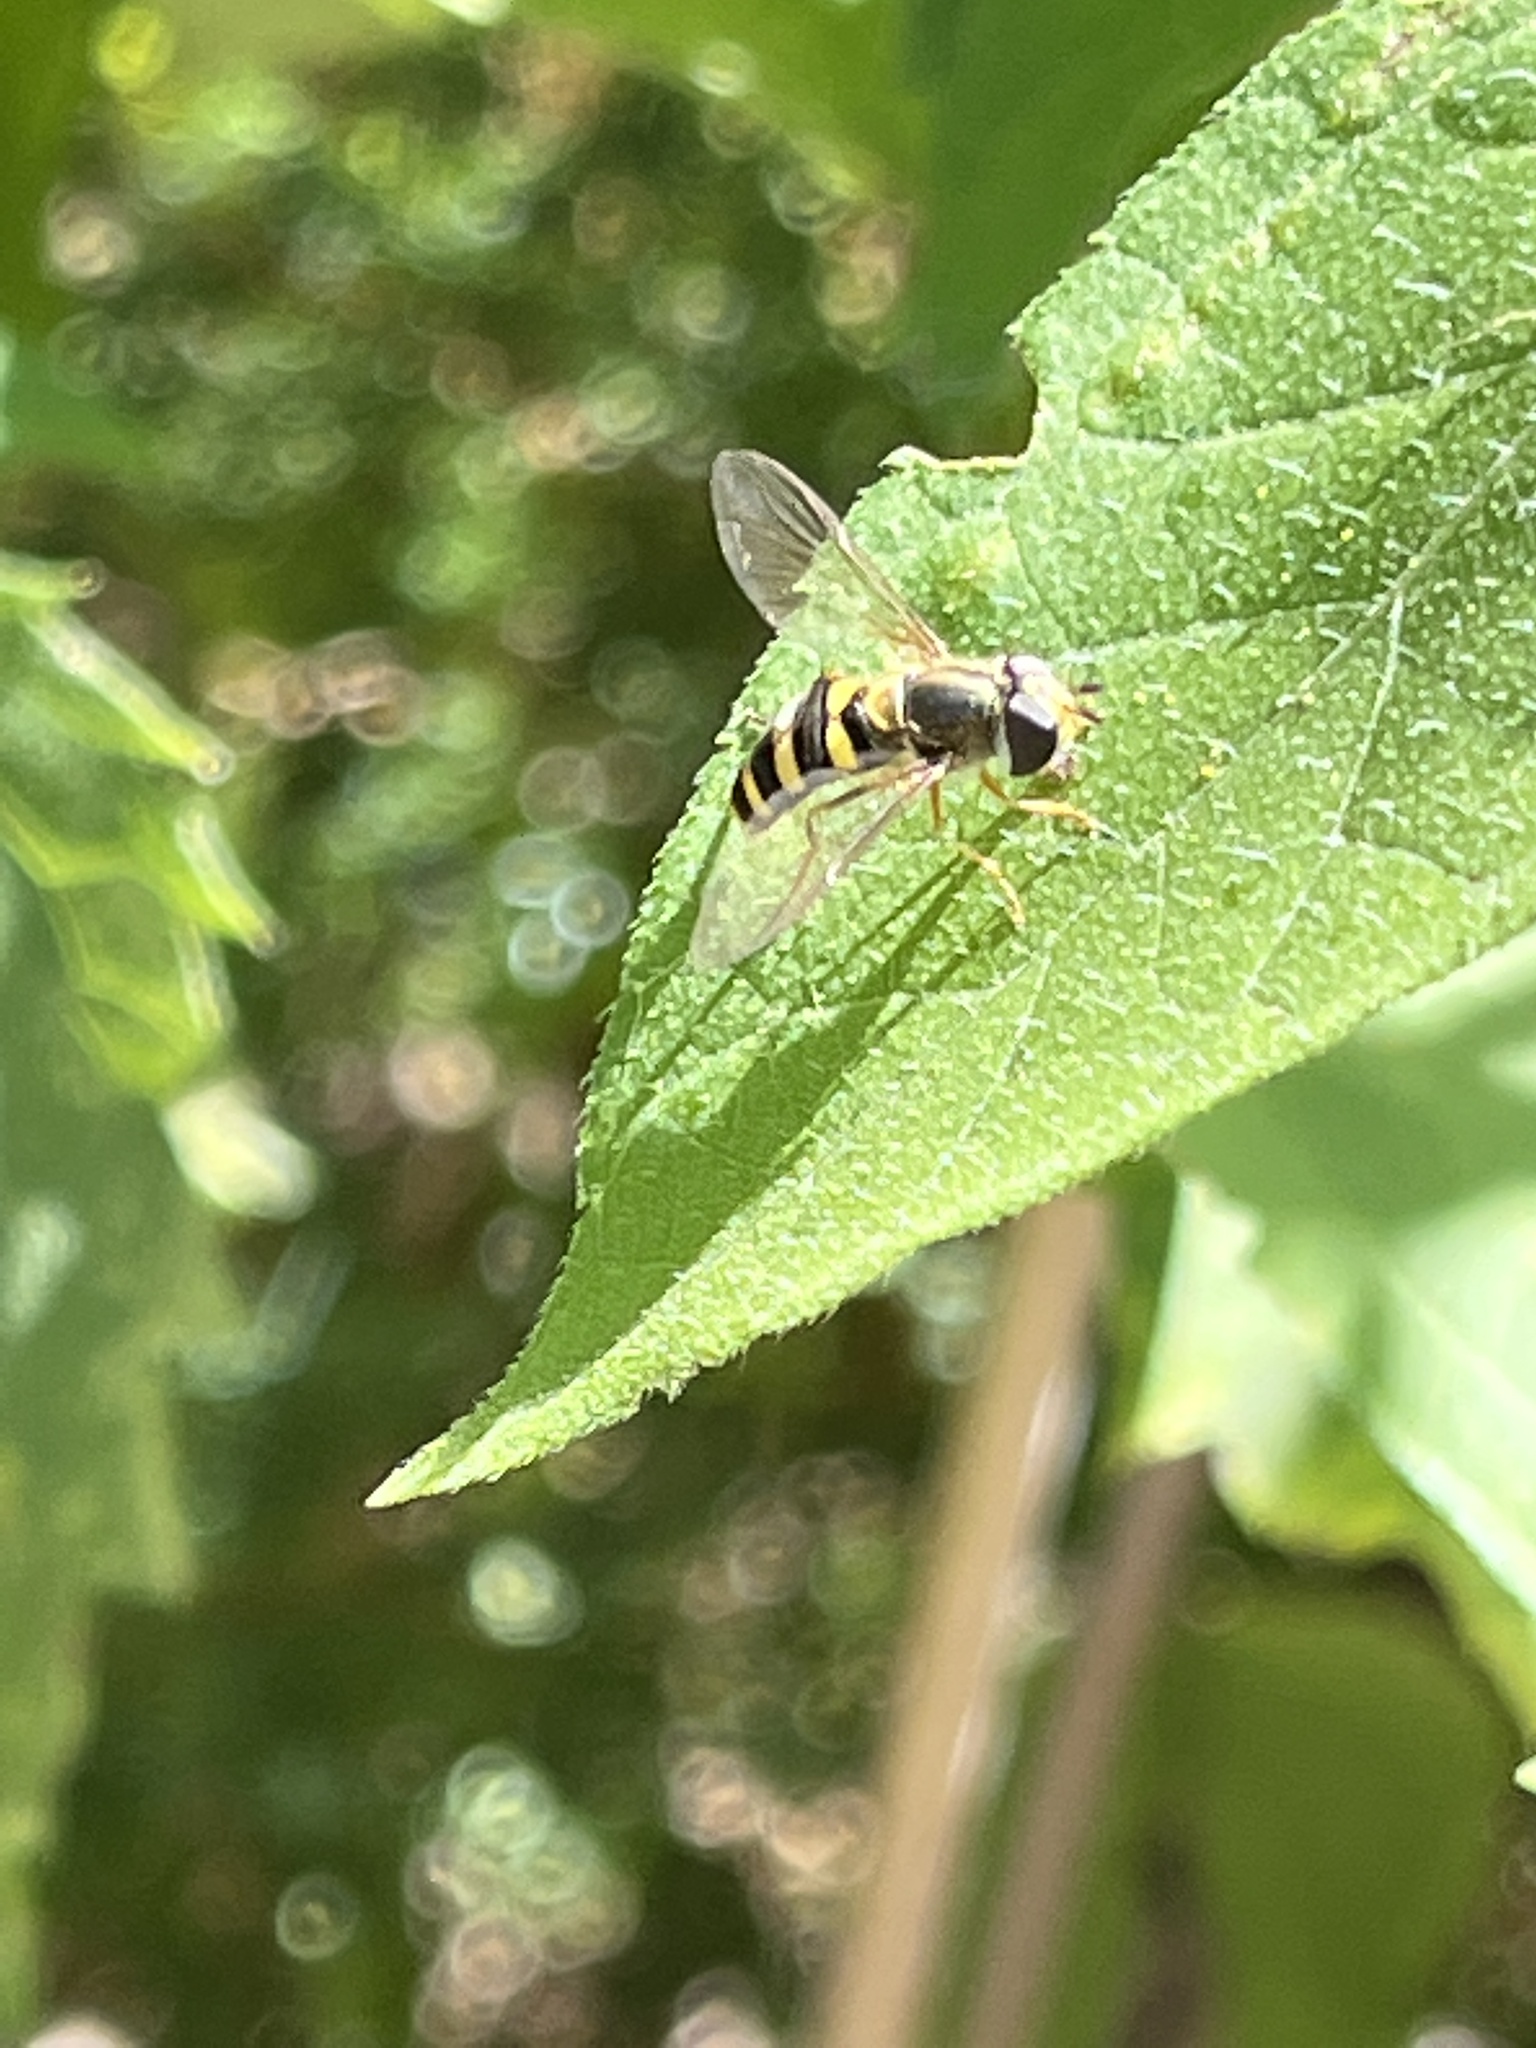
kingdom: Animalia
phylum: Arthropoda
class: Insecta
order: Diptera
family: Syrphidae
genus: Eupeodes
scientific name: Eupeodes
